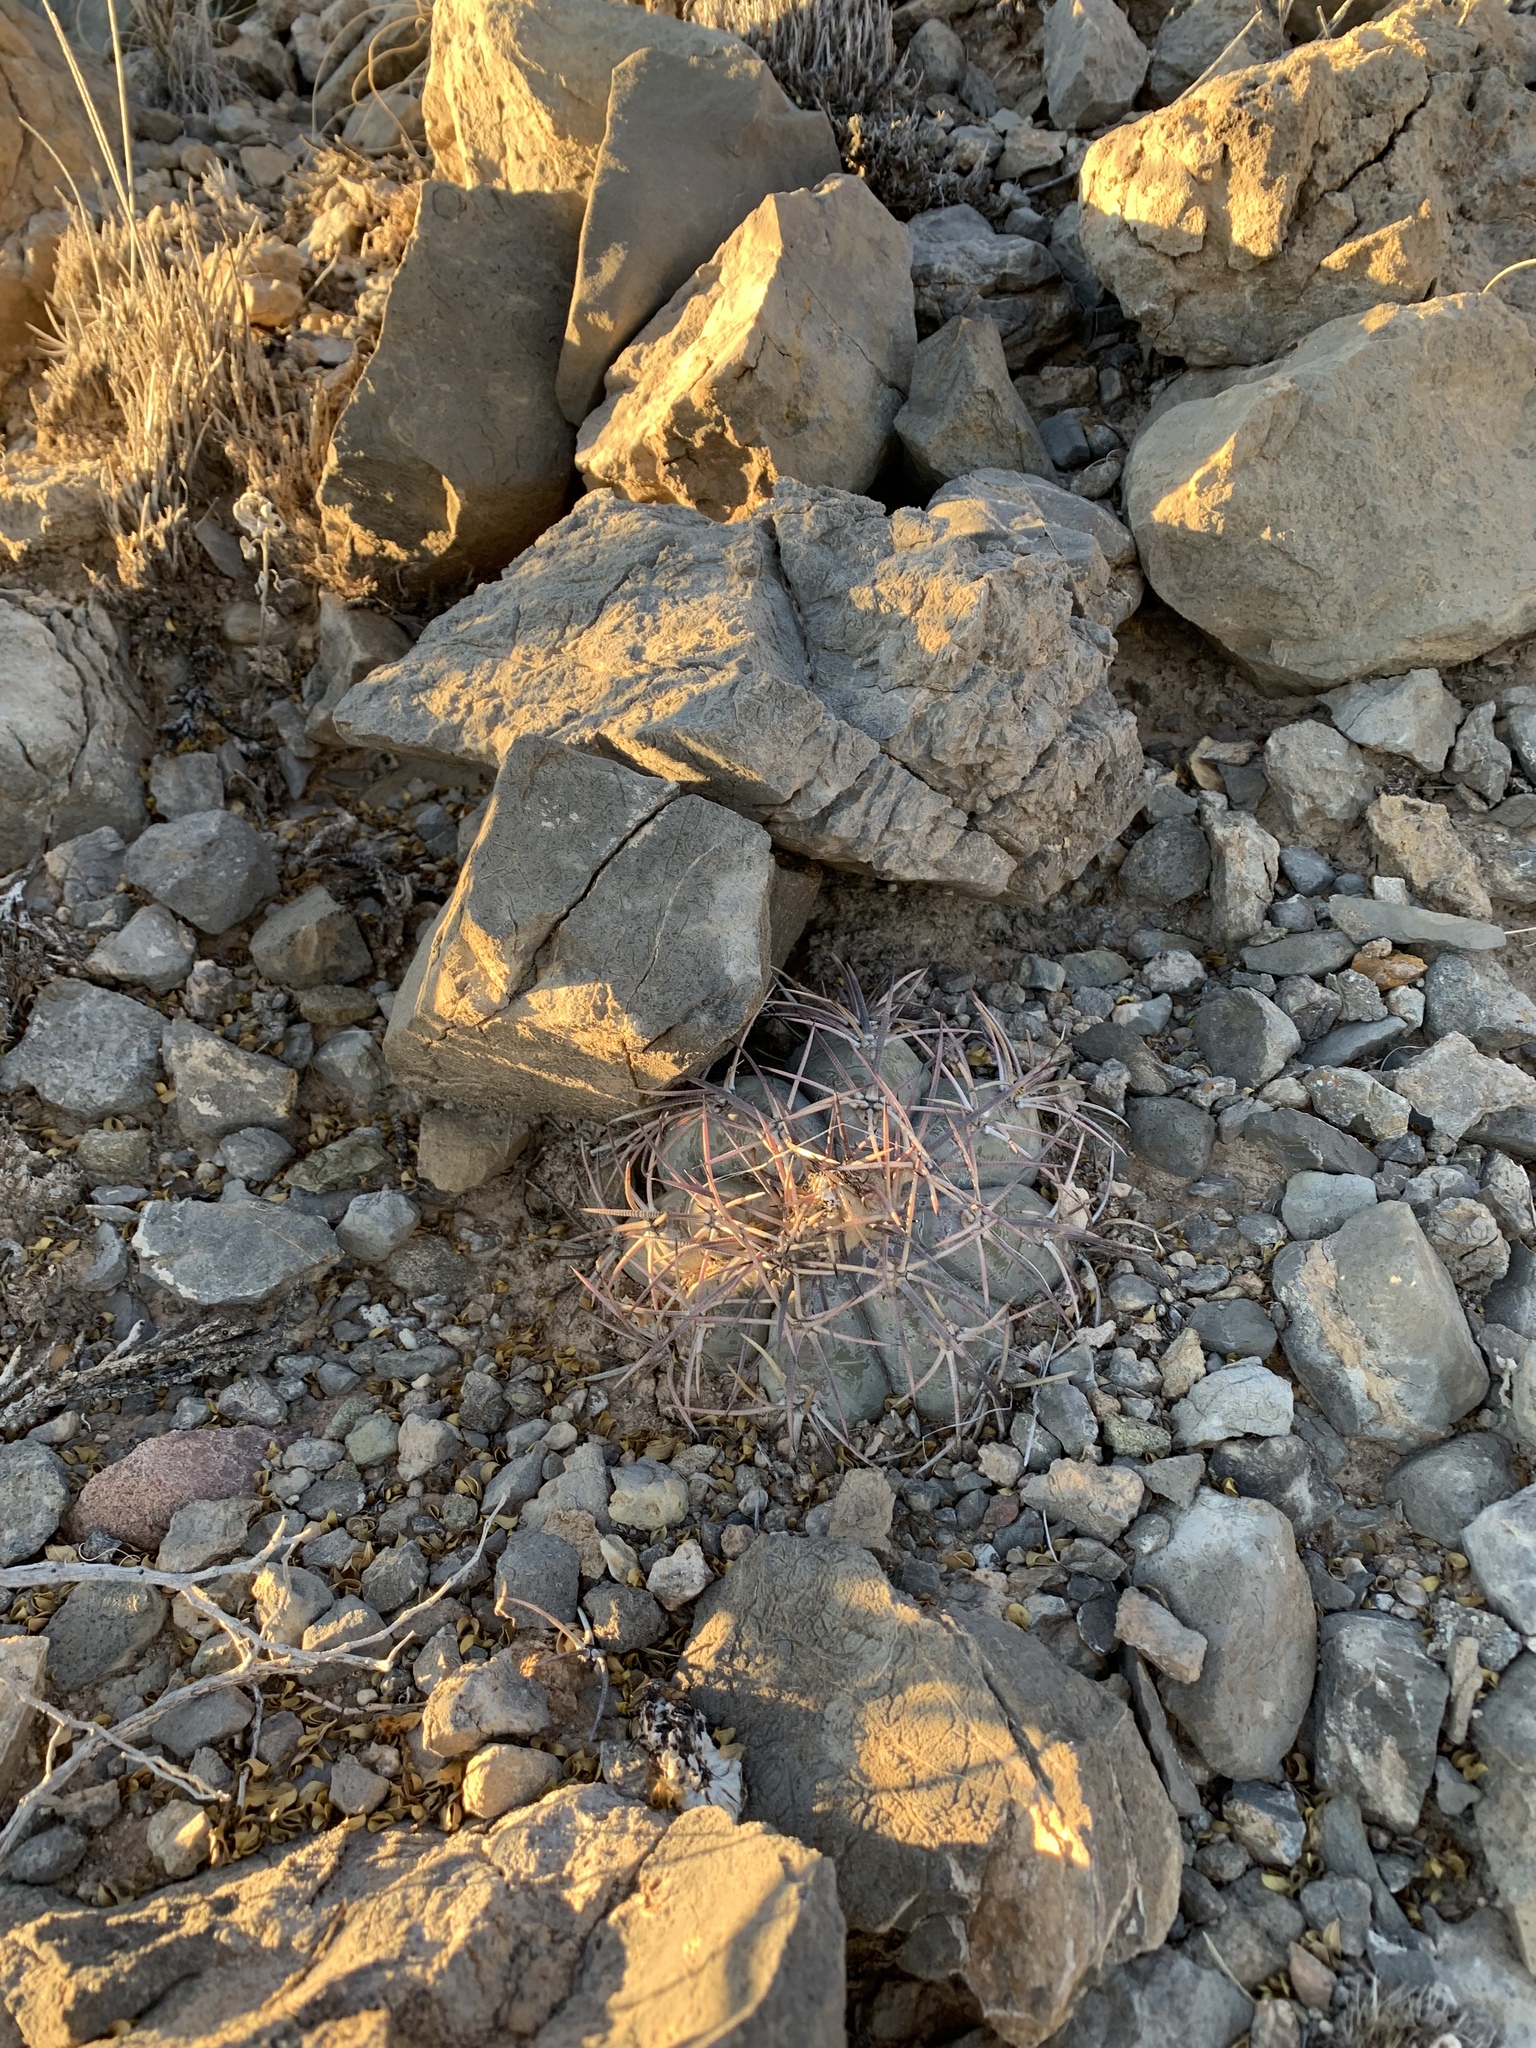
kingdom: Plantae
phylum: Tracheophyta
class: Magnoliopsida
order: Caryophyllales
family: Cactaceae
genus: Echinocactus
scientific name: Echinocactus horizonthalonius
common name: Devilshead
